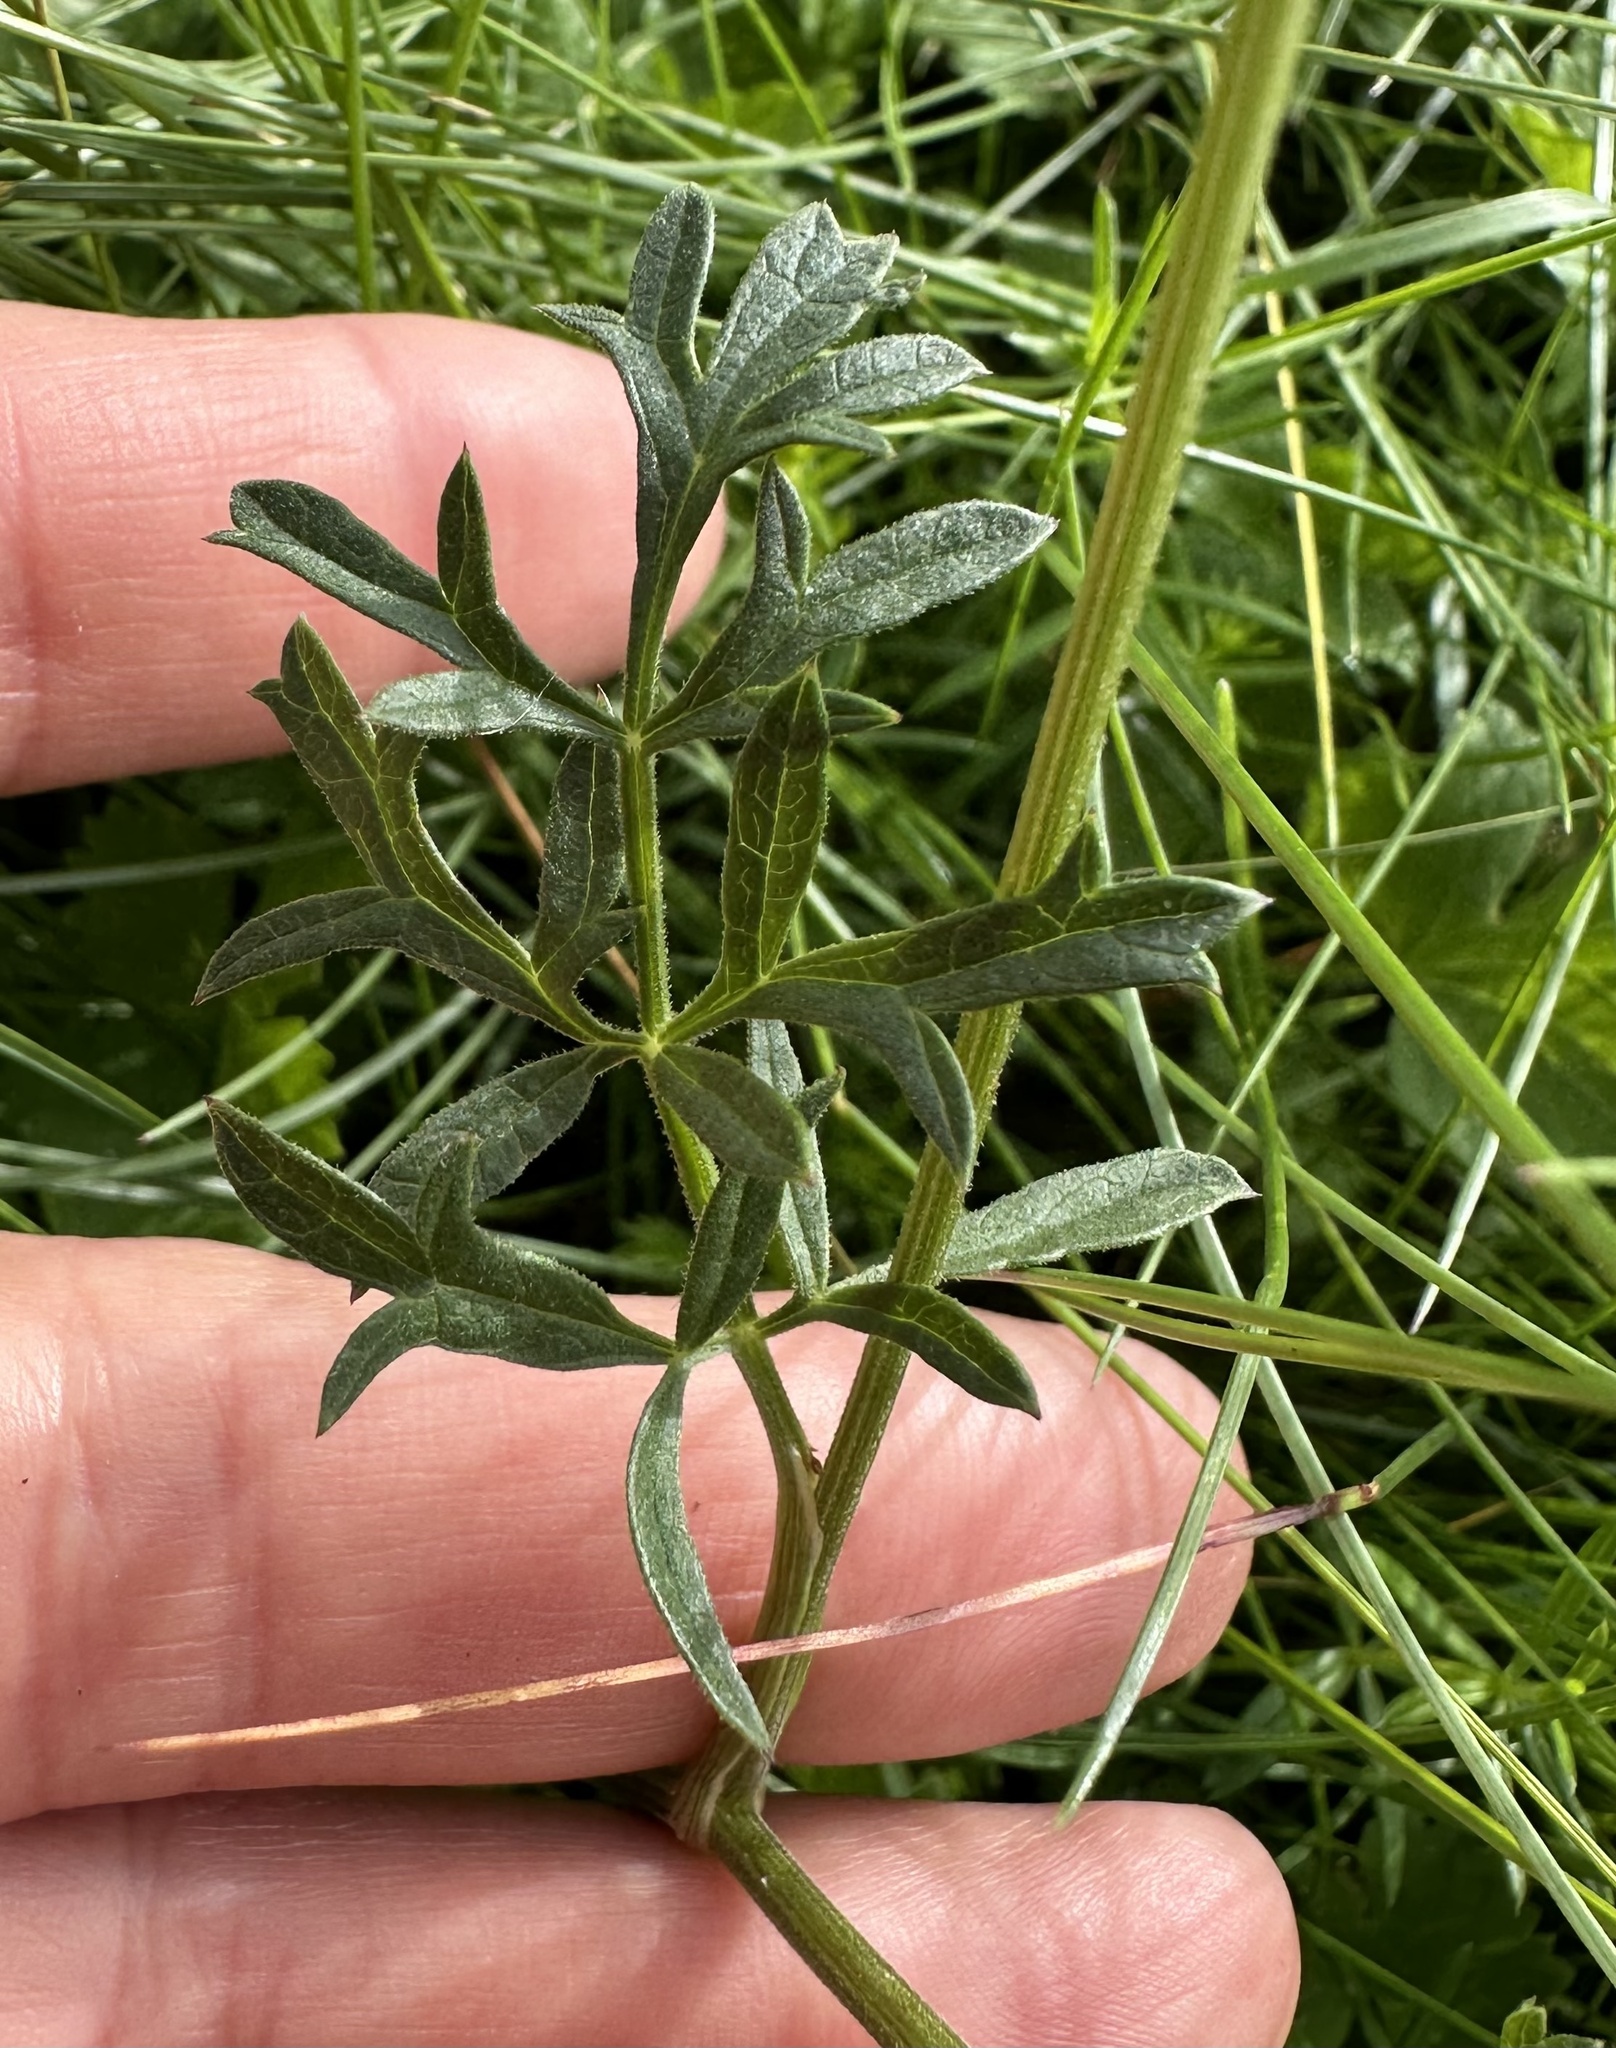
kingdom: Plantae
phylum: Tracheophyta
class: Magnoliopsida
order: Apiales
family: Apiaceae
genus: Pimpinella
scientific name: Pimpinella saxifraga
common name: Burnet-saxifrage
